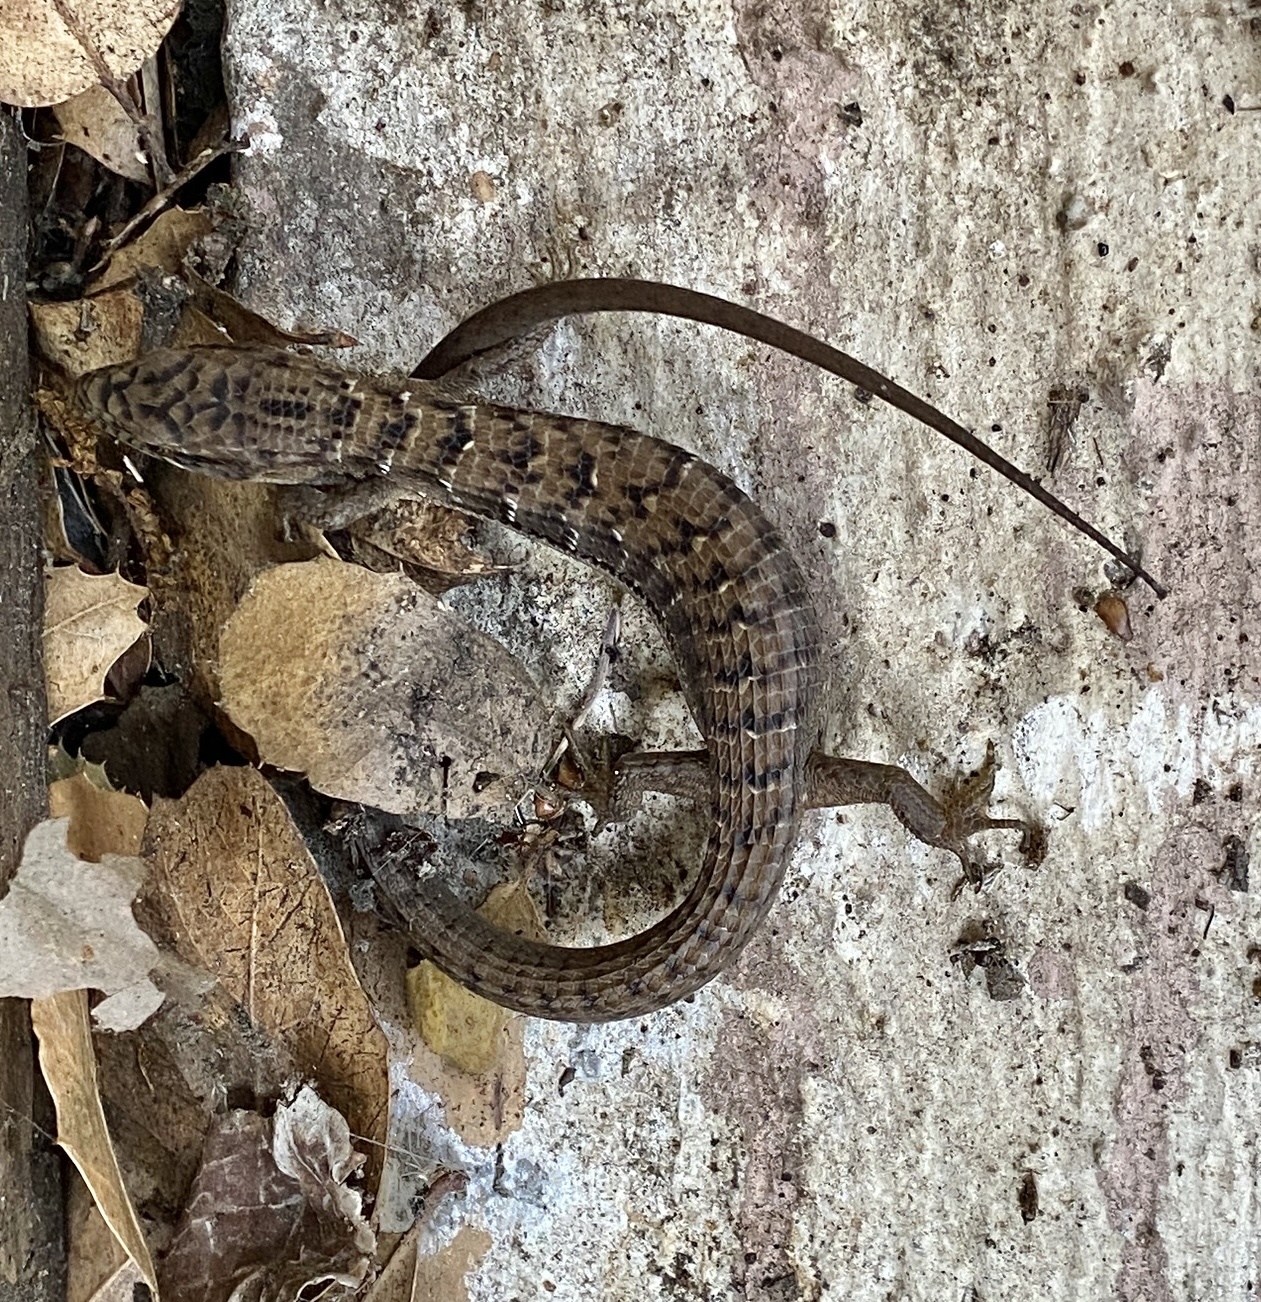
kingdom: Animalia
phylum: Chordata
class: Squamata
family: Anguidae
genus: Elgaria
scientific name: Elgaria multicarinata
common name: Southern alligator lizard
